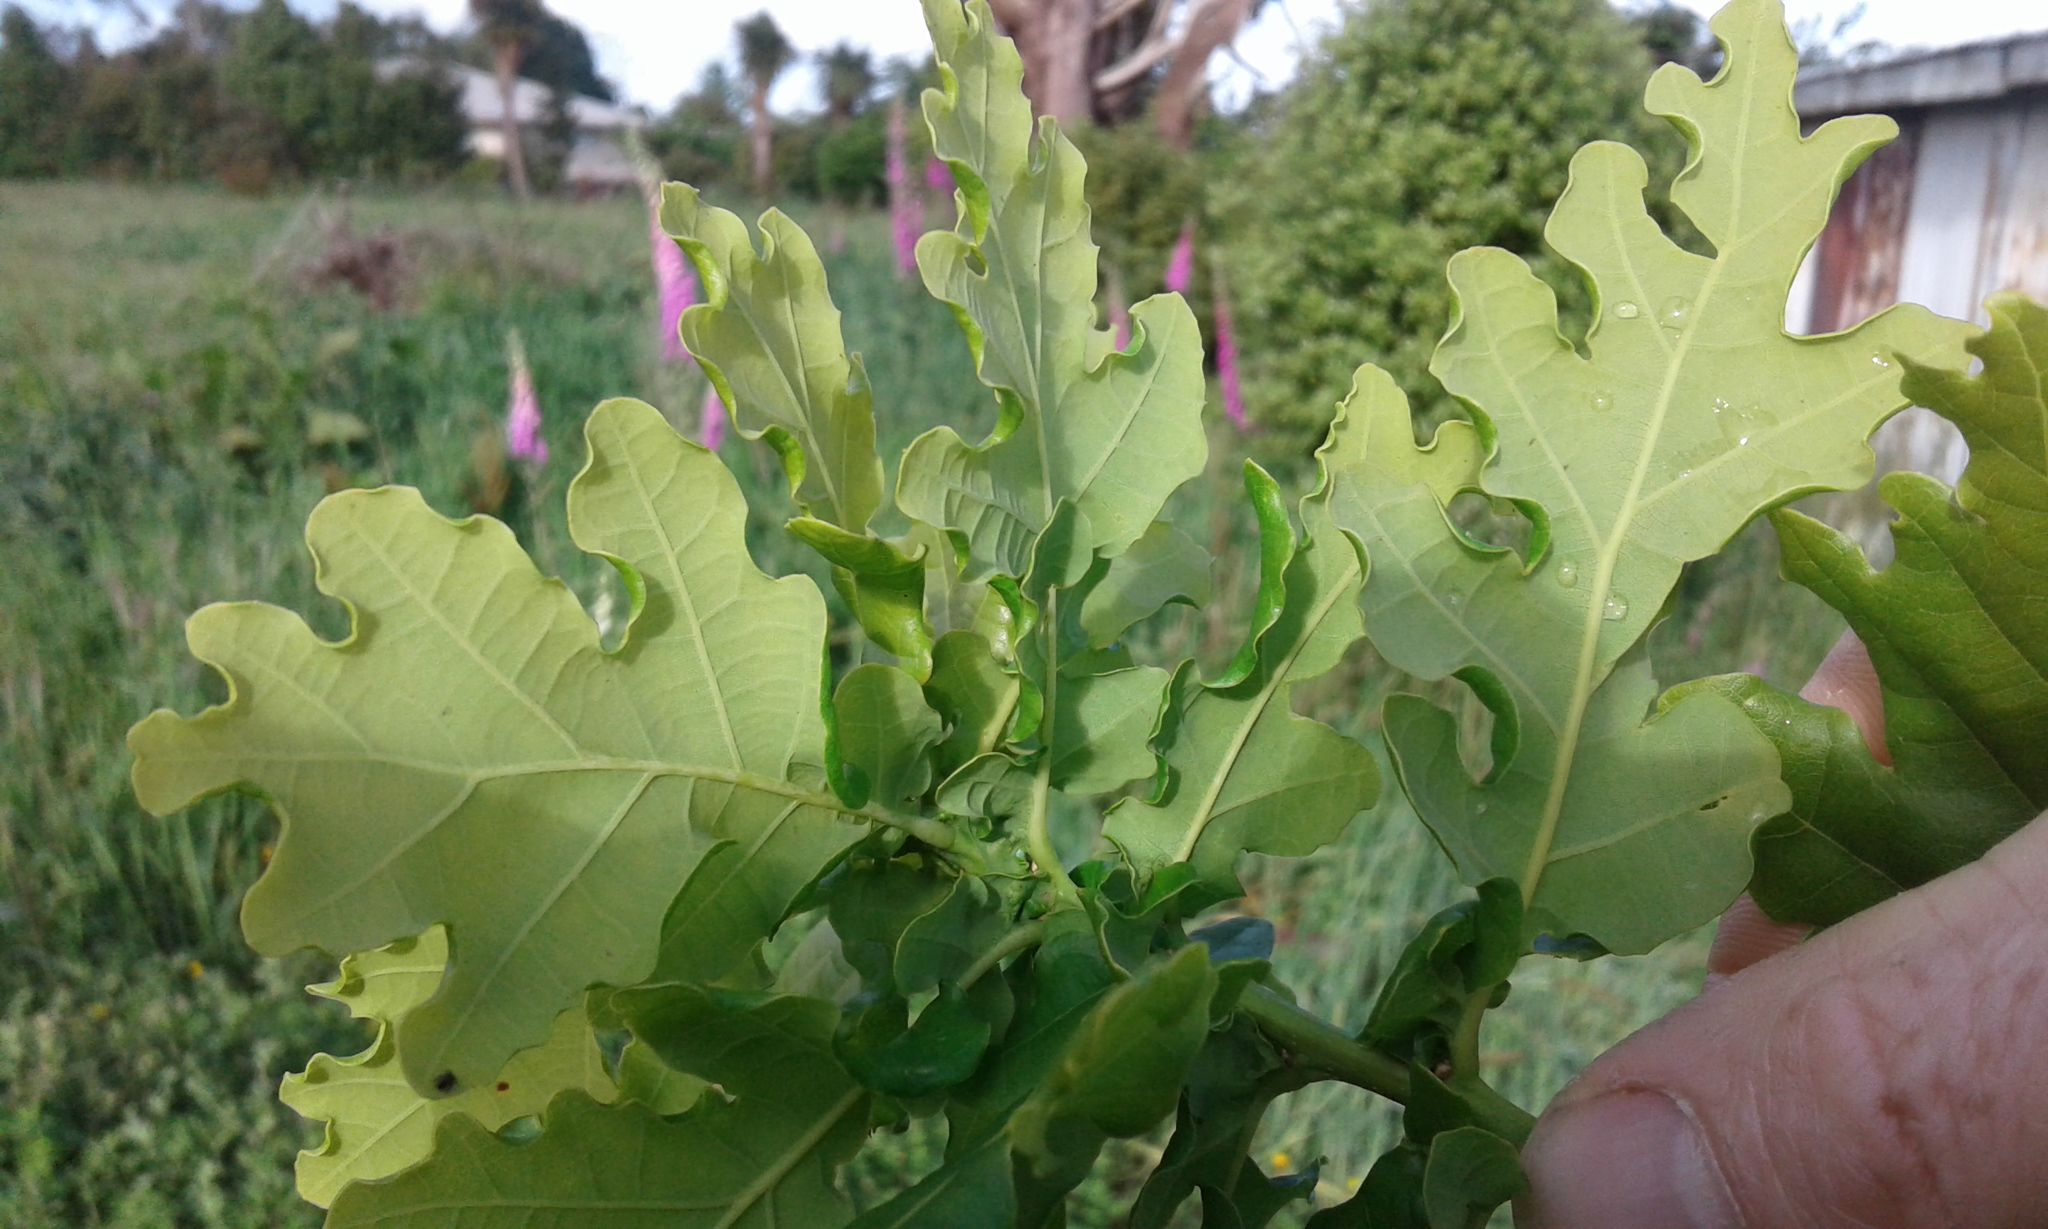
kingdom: Plantae
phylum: Tracheophyta
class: Magnoliopsida
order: Fagales
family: Fagaceae
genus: Quercus
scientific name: Quercus robur
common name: Pedunculate oak
